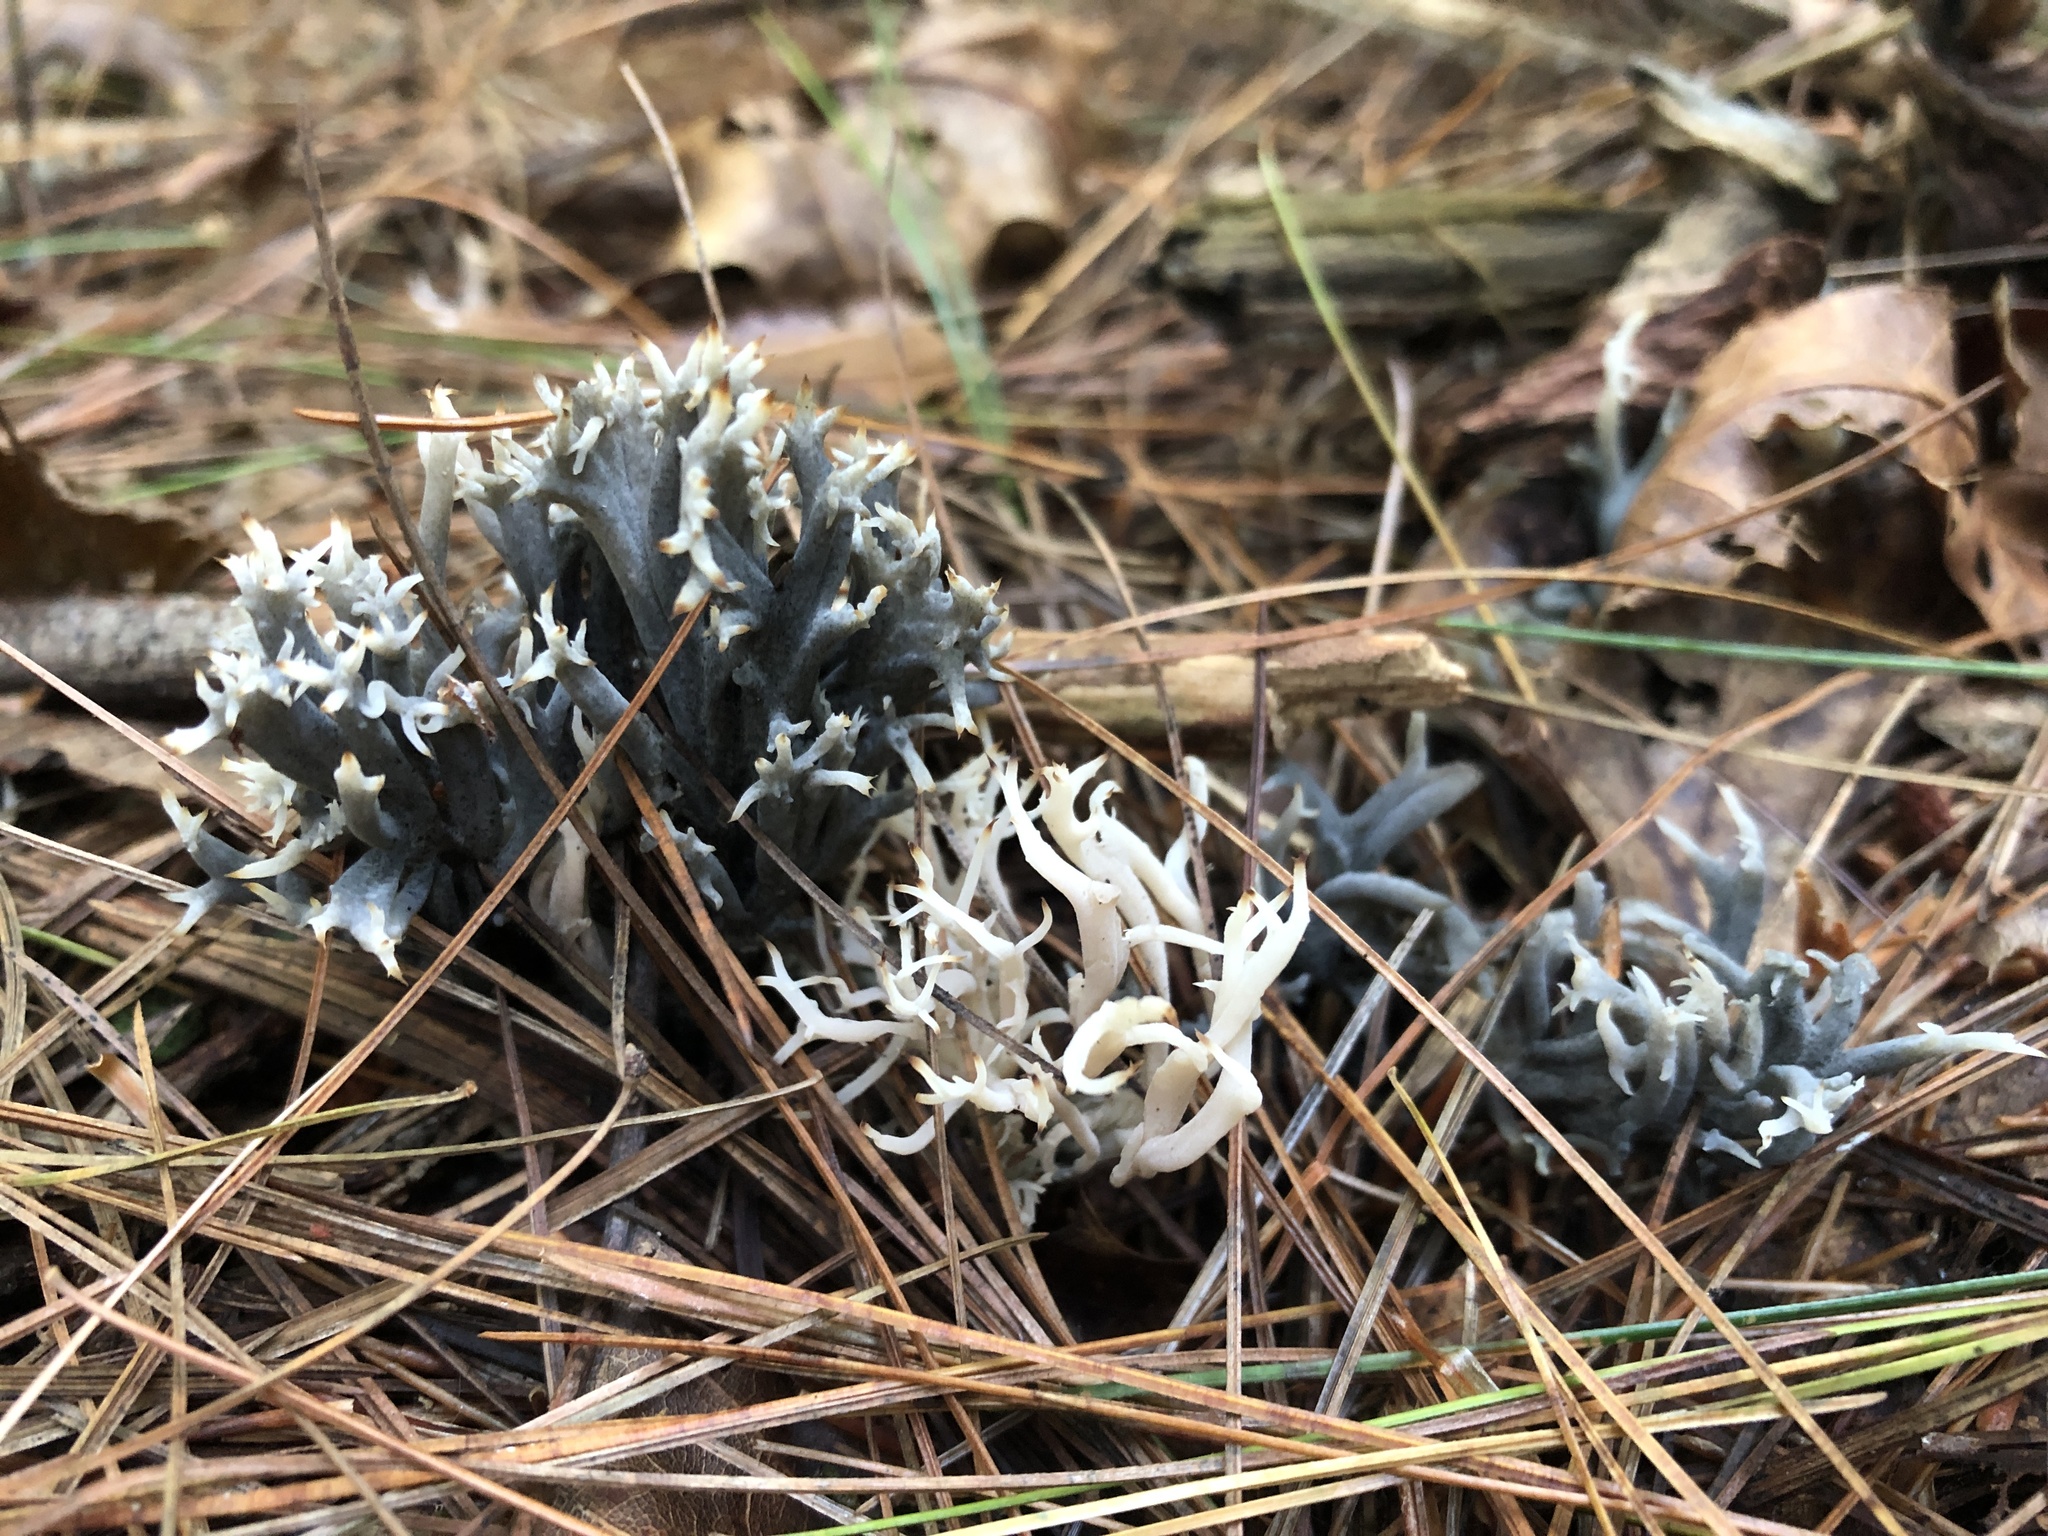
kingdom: Fungi
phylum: Ascomycota
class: Sordariomycetes
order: Sordariales
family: Helminthosphaeriaceae
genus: Helminthosphaeria
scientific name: Helminthosphaeria clavariarum
